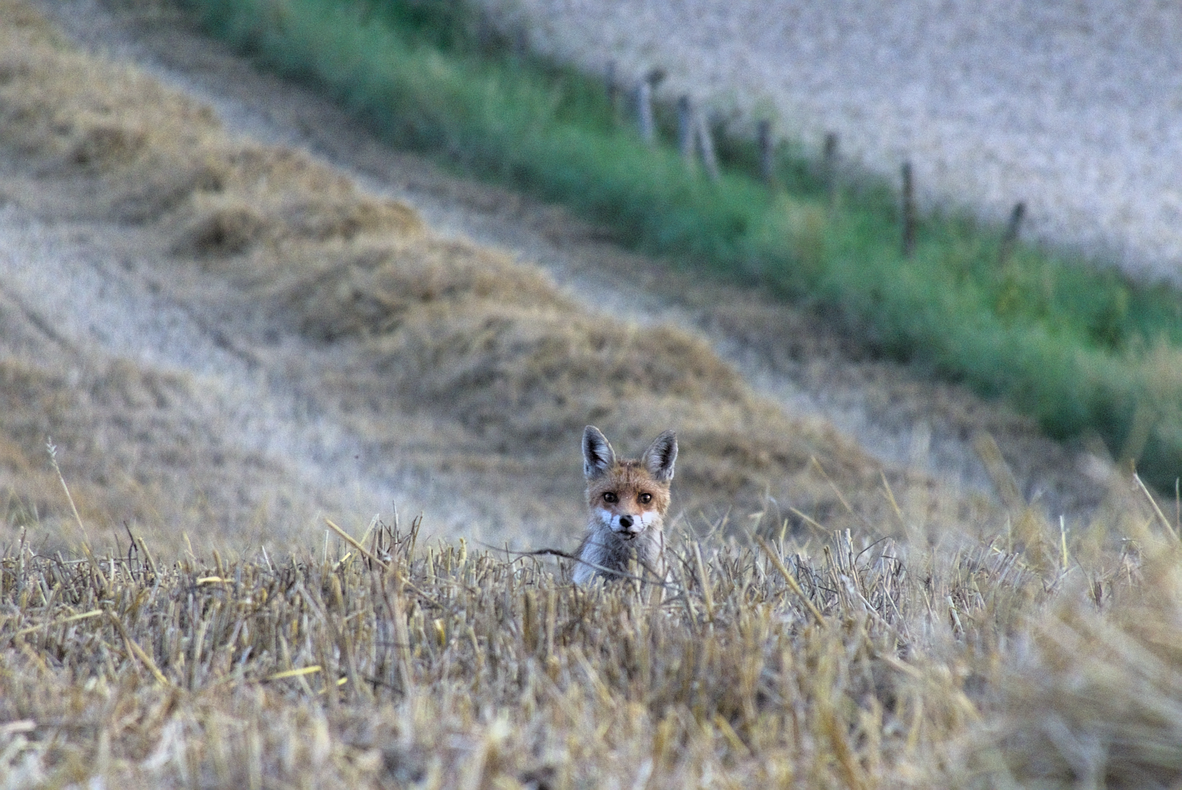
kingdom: Animalia
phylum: Chordata
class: Mammalia
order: Carnivora
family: Canidae
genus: Vulpes
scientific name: Vulpes vulpes
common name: Red fox
